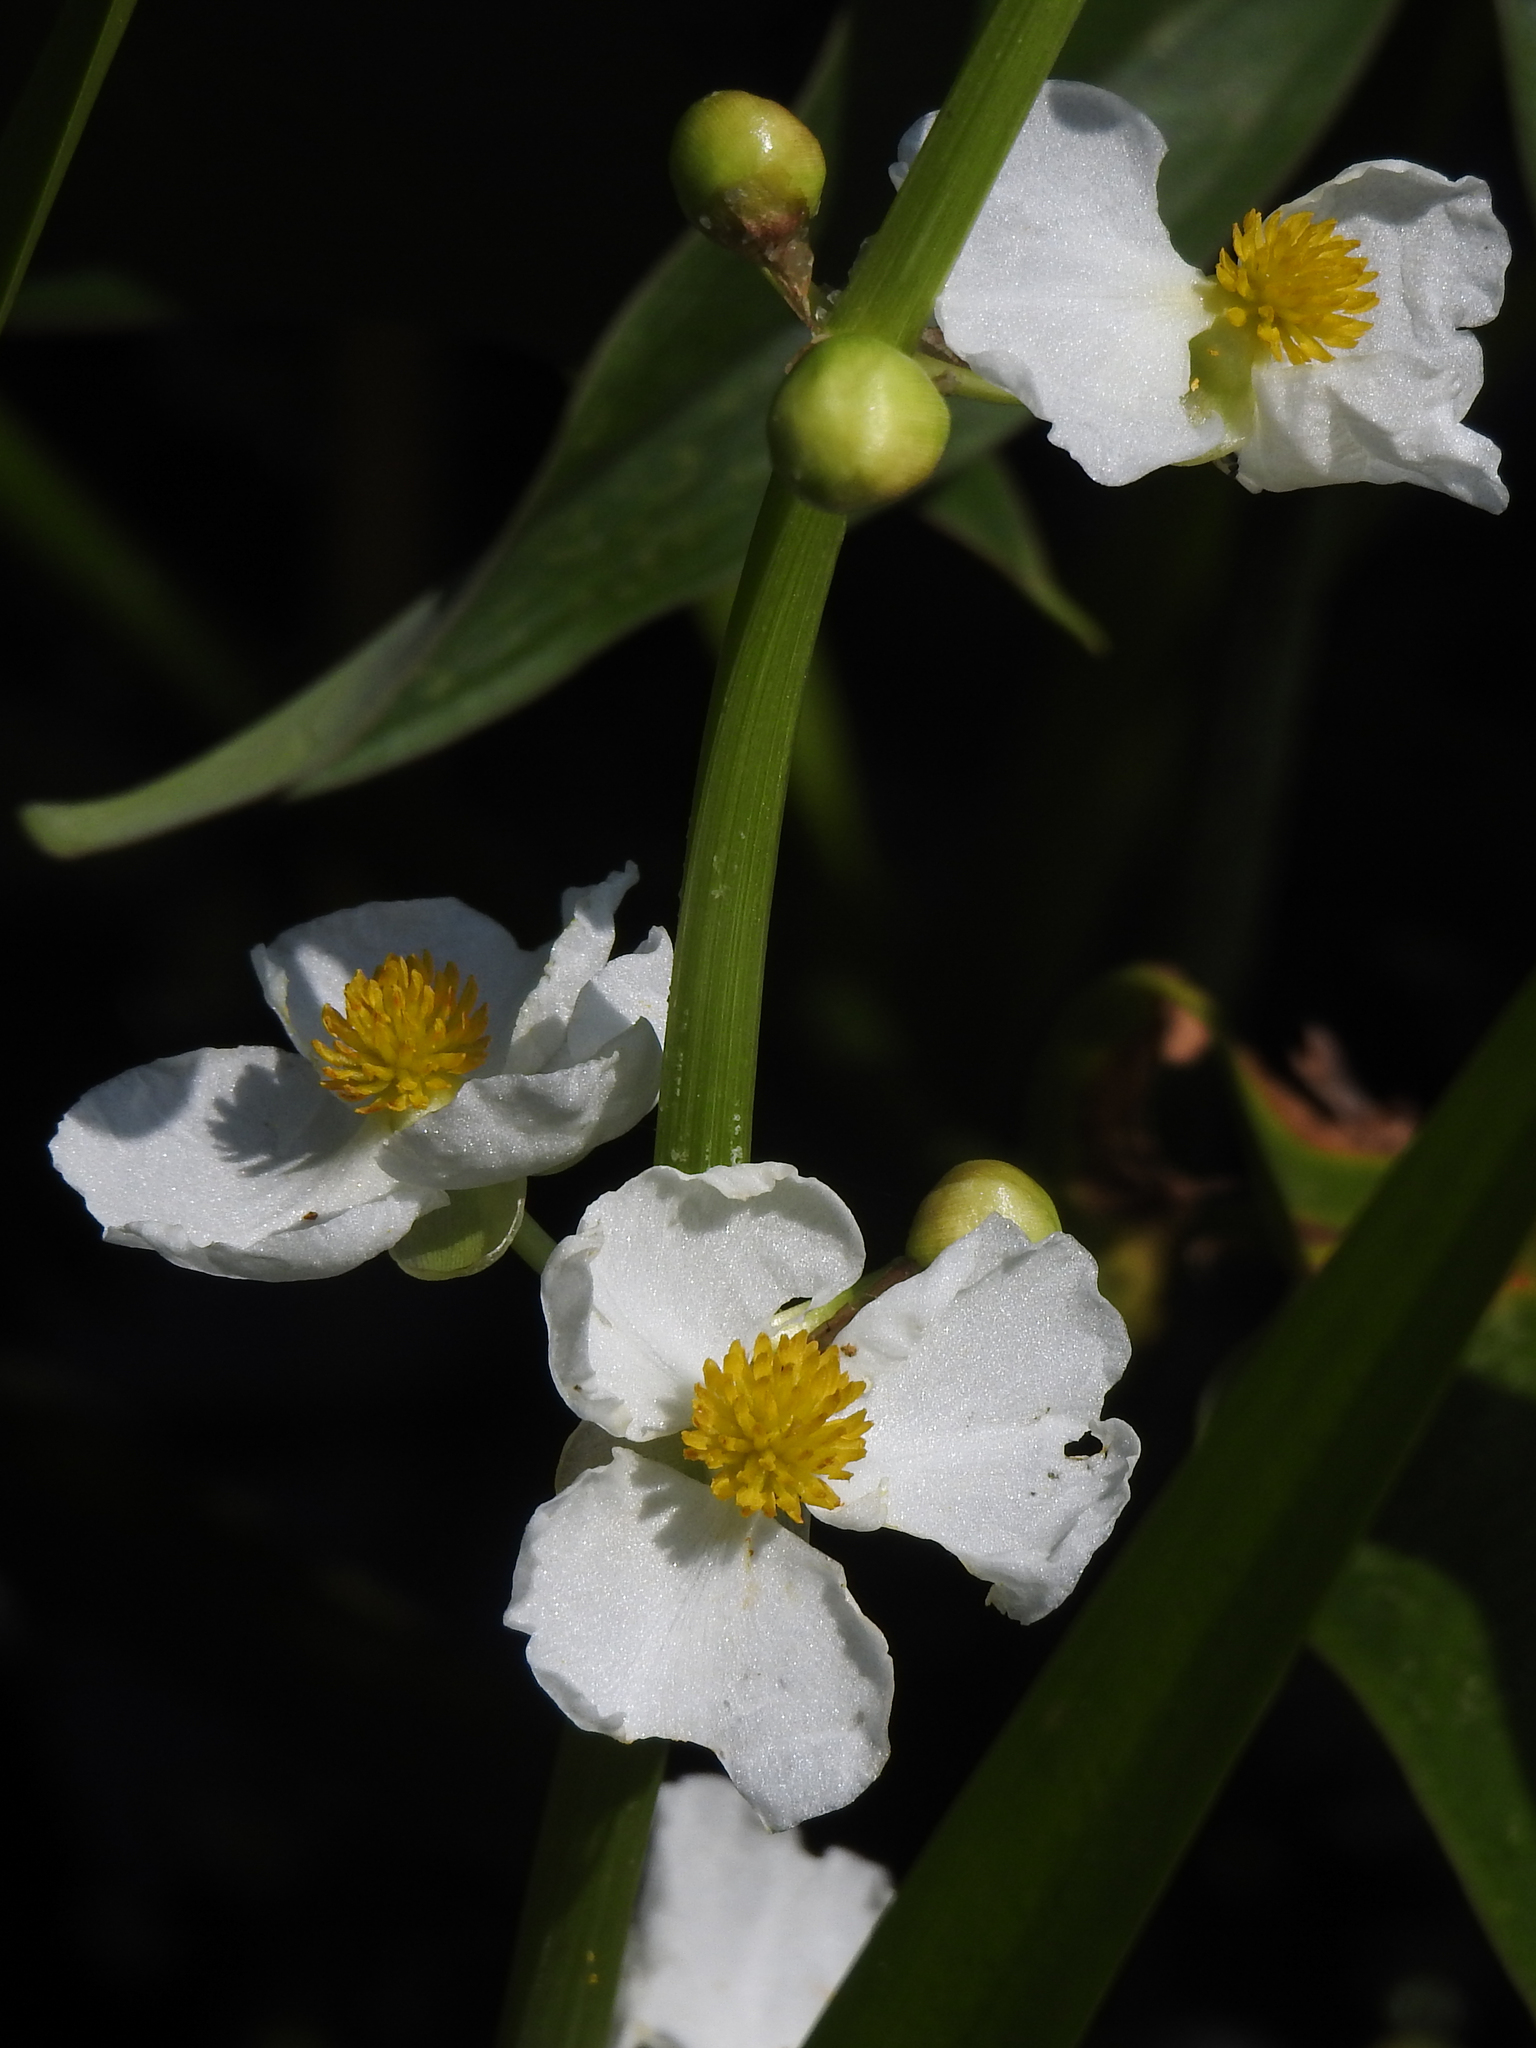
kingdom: Plantae
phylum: Tracheophyta
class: Liliopsida
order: Alismatales
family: Alismataceae
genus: Sagittaria
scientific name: Sagittaria latifolia
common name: Duck-potato
